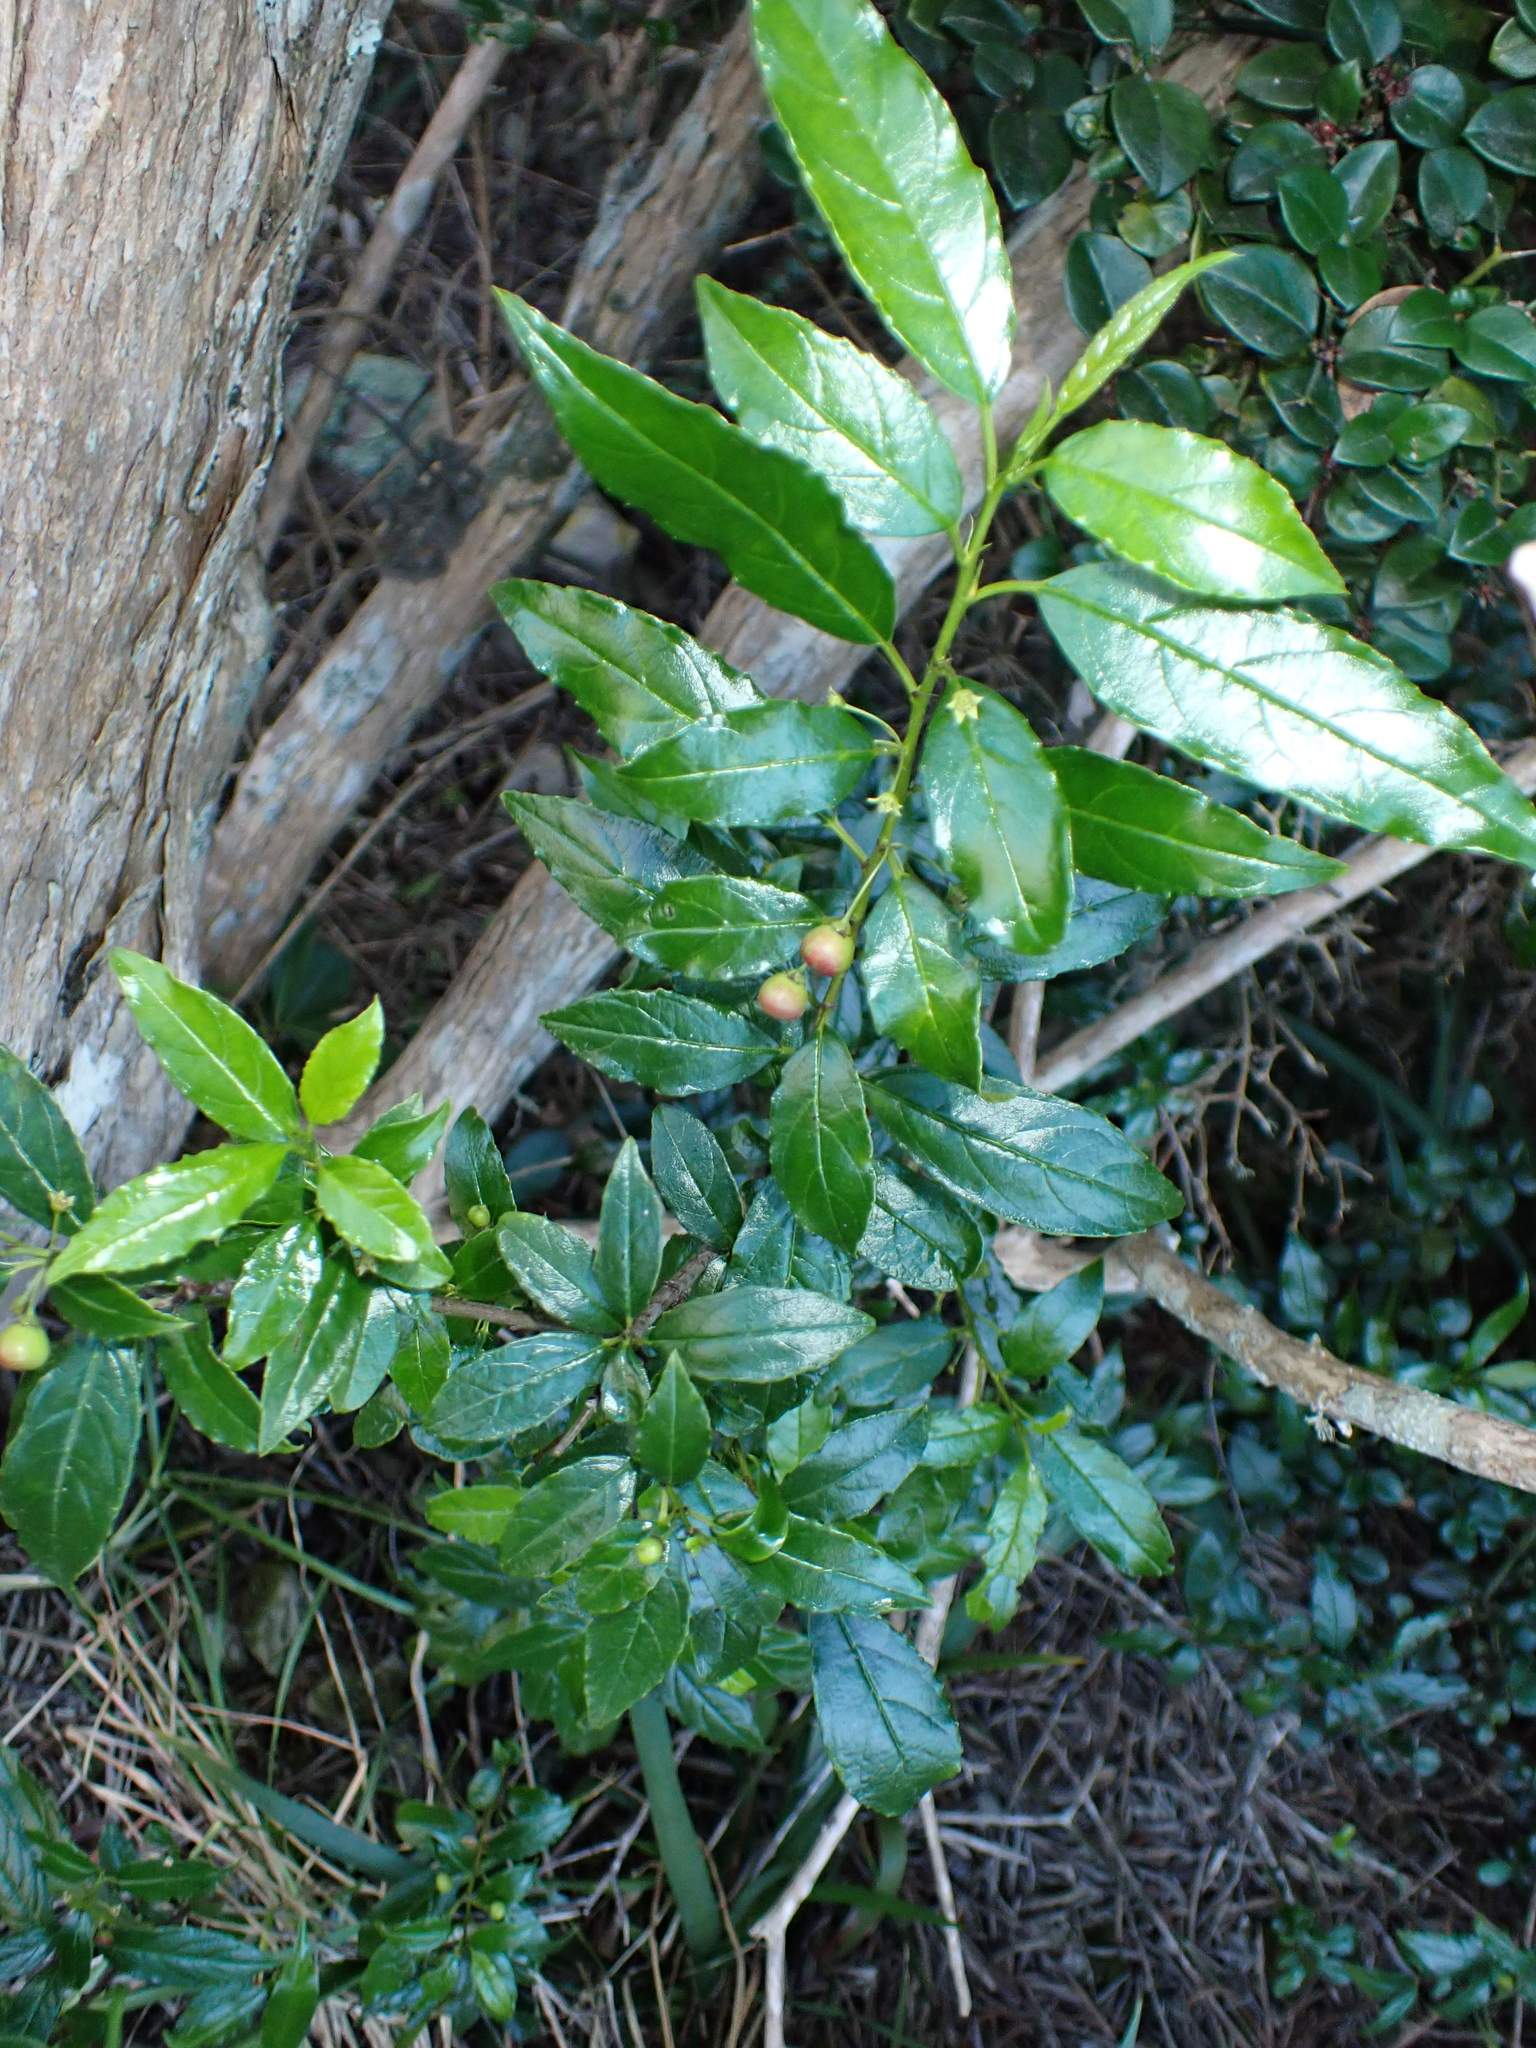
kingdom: Plantae
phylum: Tracheophyta
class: Magnoliopsida
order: Rosales
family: Rhamnaceae
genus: Rhamnus
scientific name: Rhamnus prinoides
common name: Dogwood
